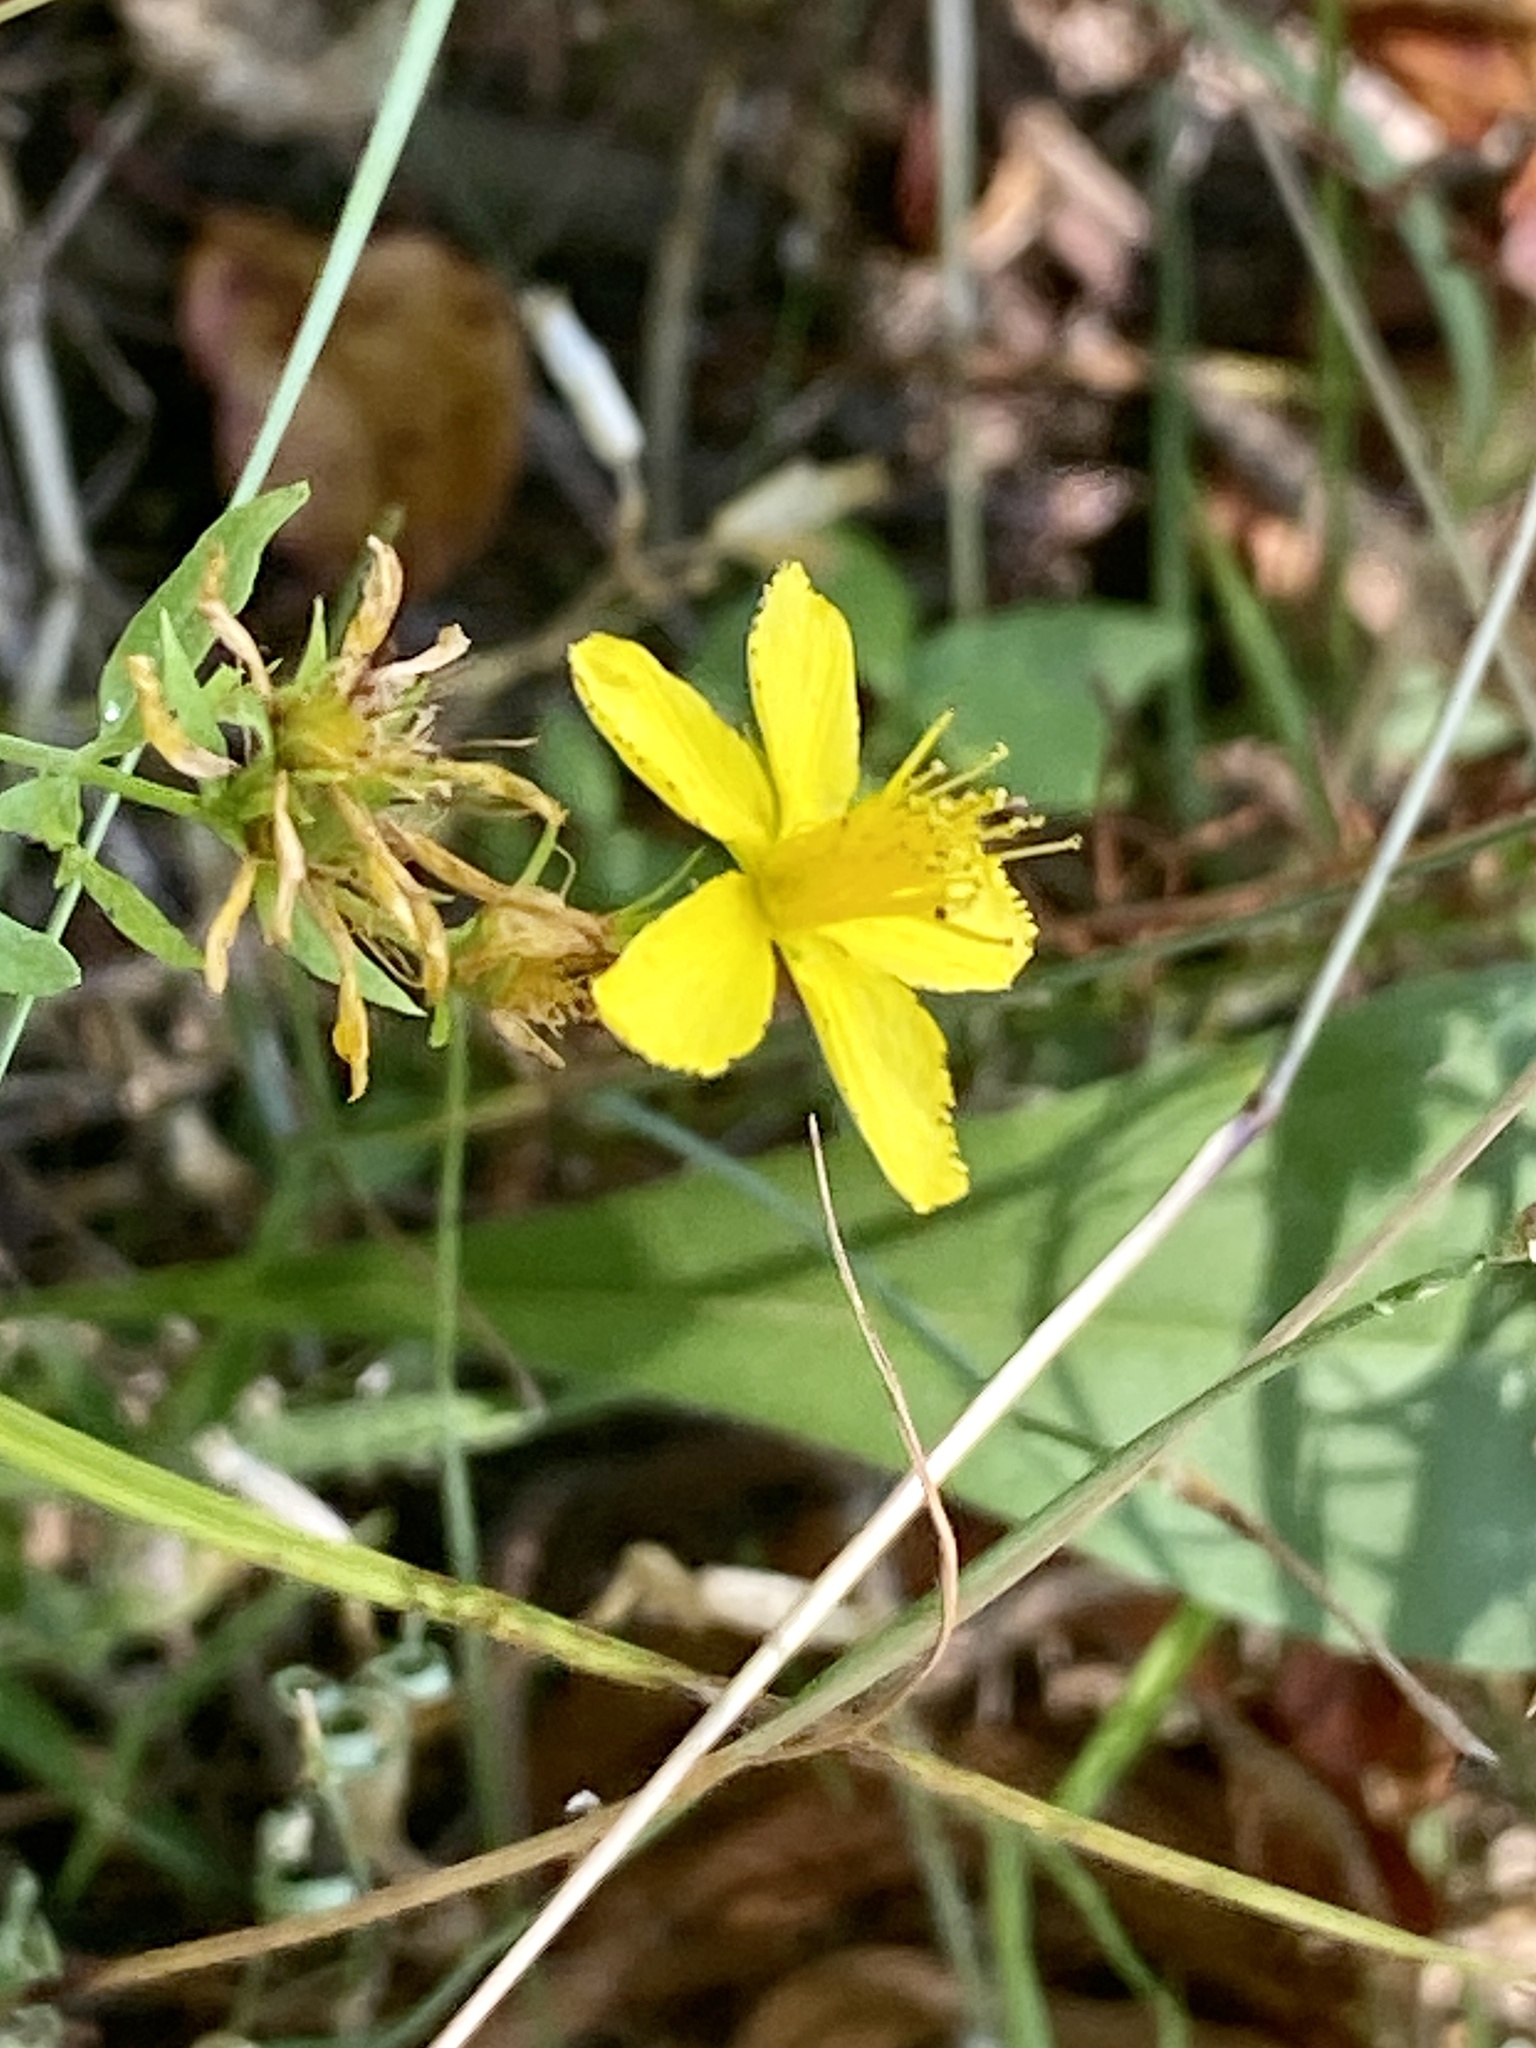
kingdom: Plantae
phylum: Tracheophyta
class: Magnoliopsida
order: Malpighiales
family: Hypericaceae
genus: Hypericum
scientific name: Hypericum perforatum
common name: Common st. johnswort
